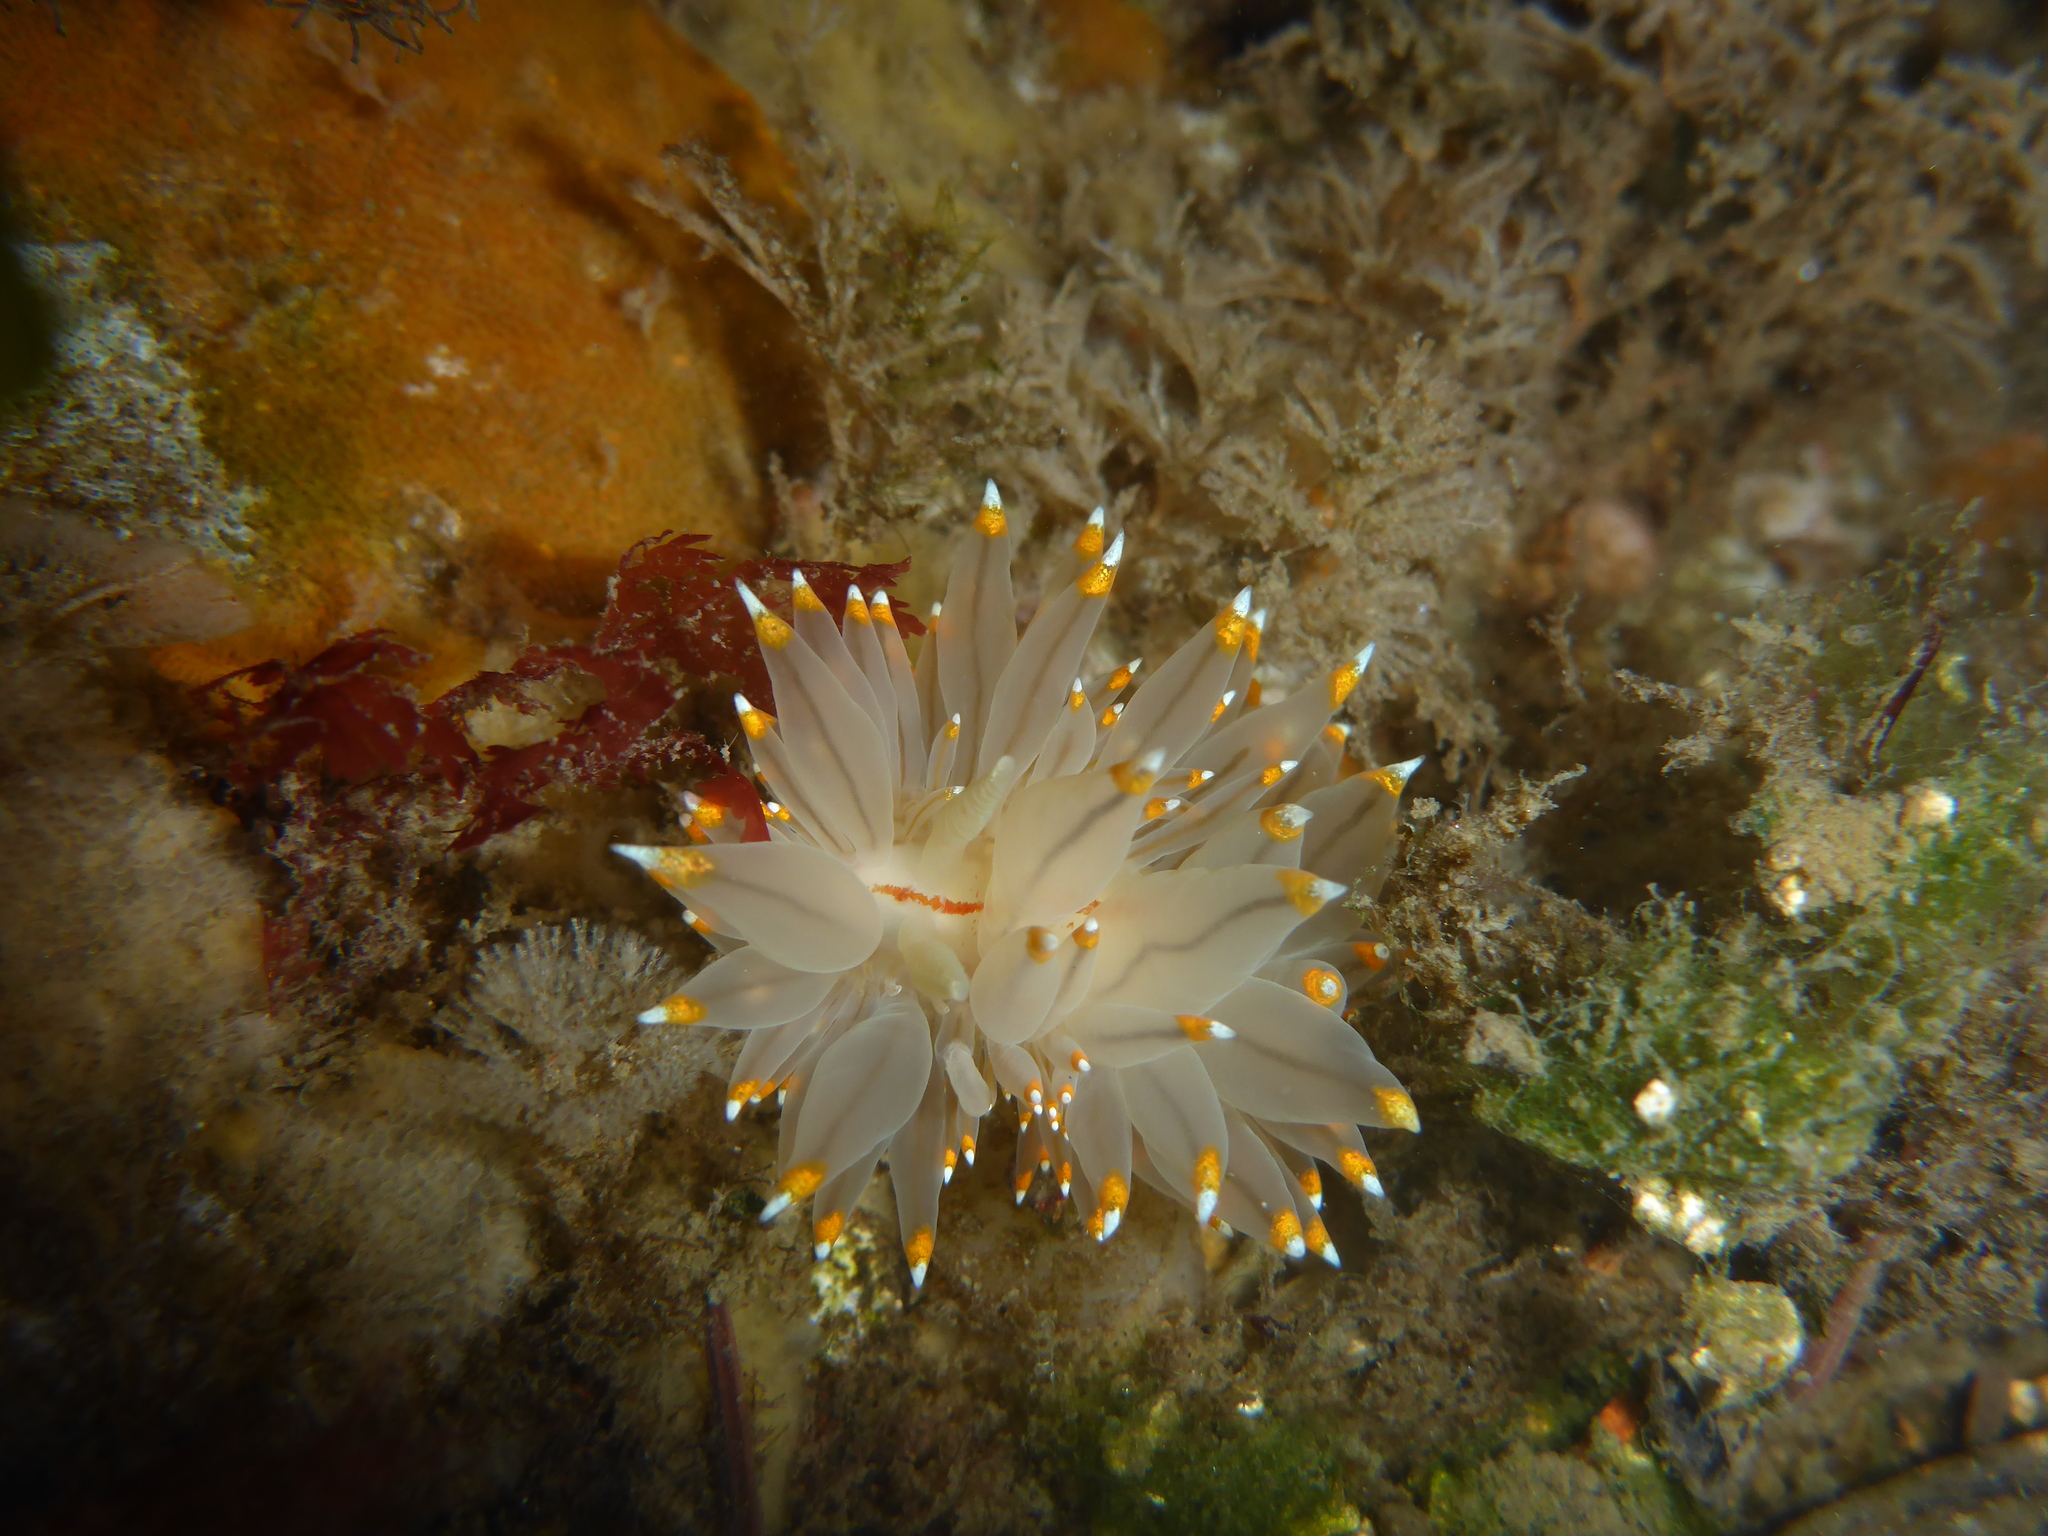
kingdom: Animalia
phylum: Mollusca
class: Gastropoda
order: Nudibranchia
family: Janolidae
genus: Antiopella
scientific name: Antiopella fusca
